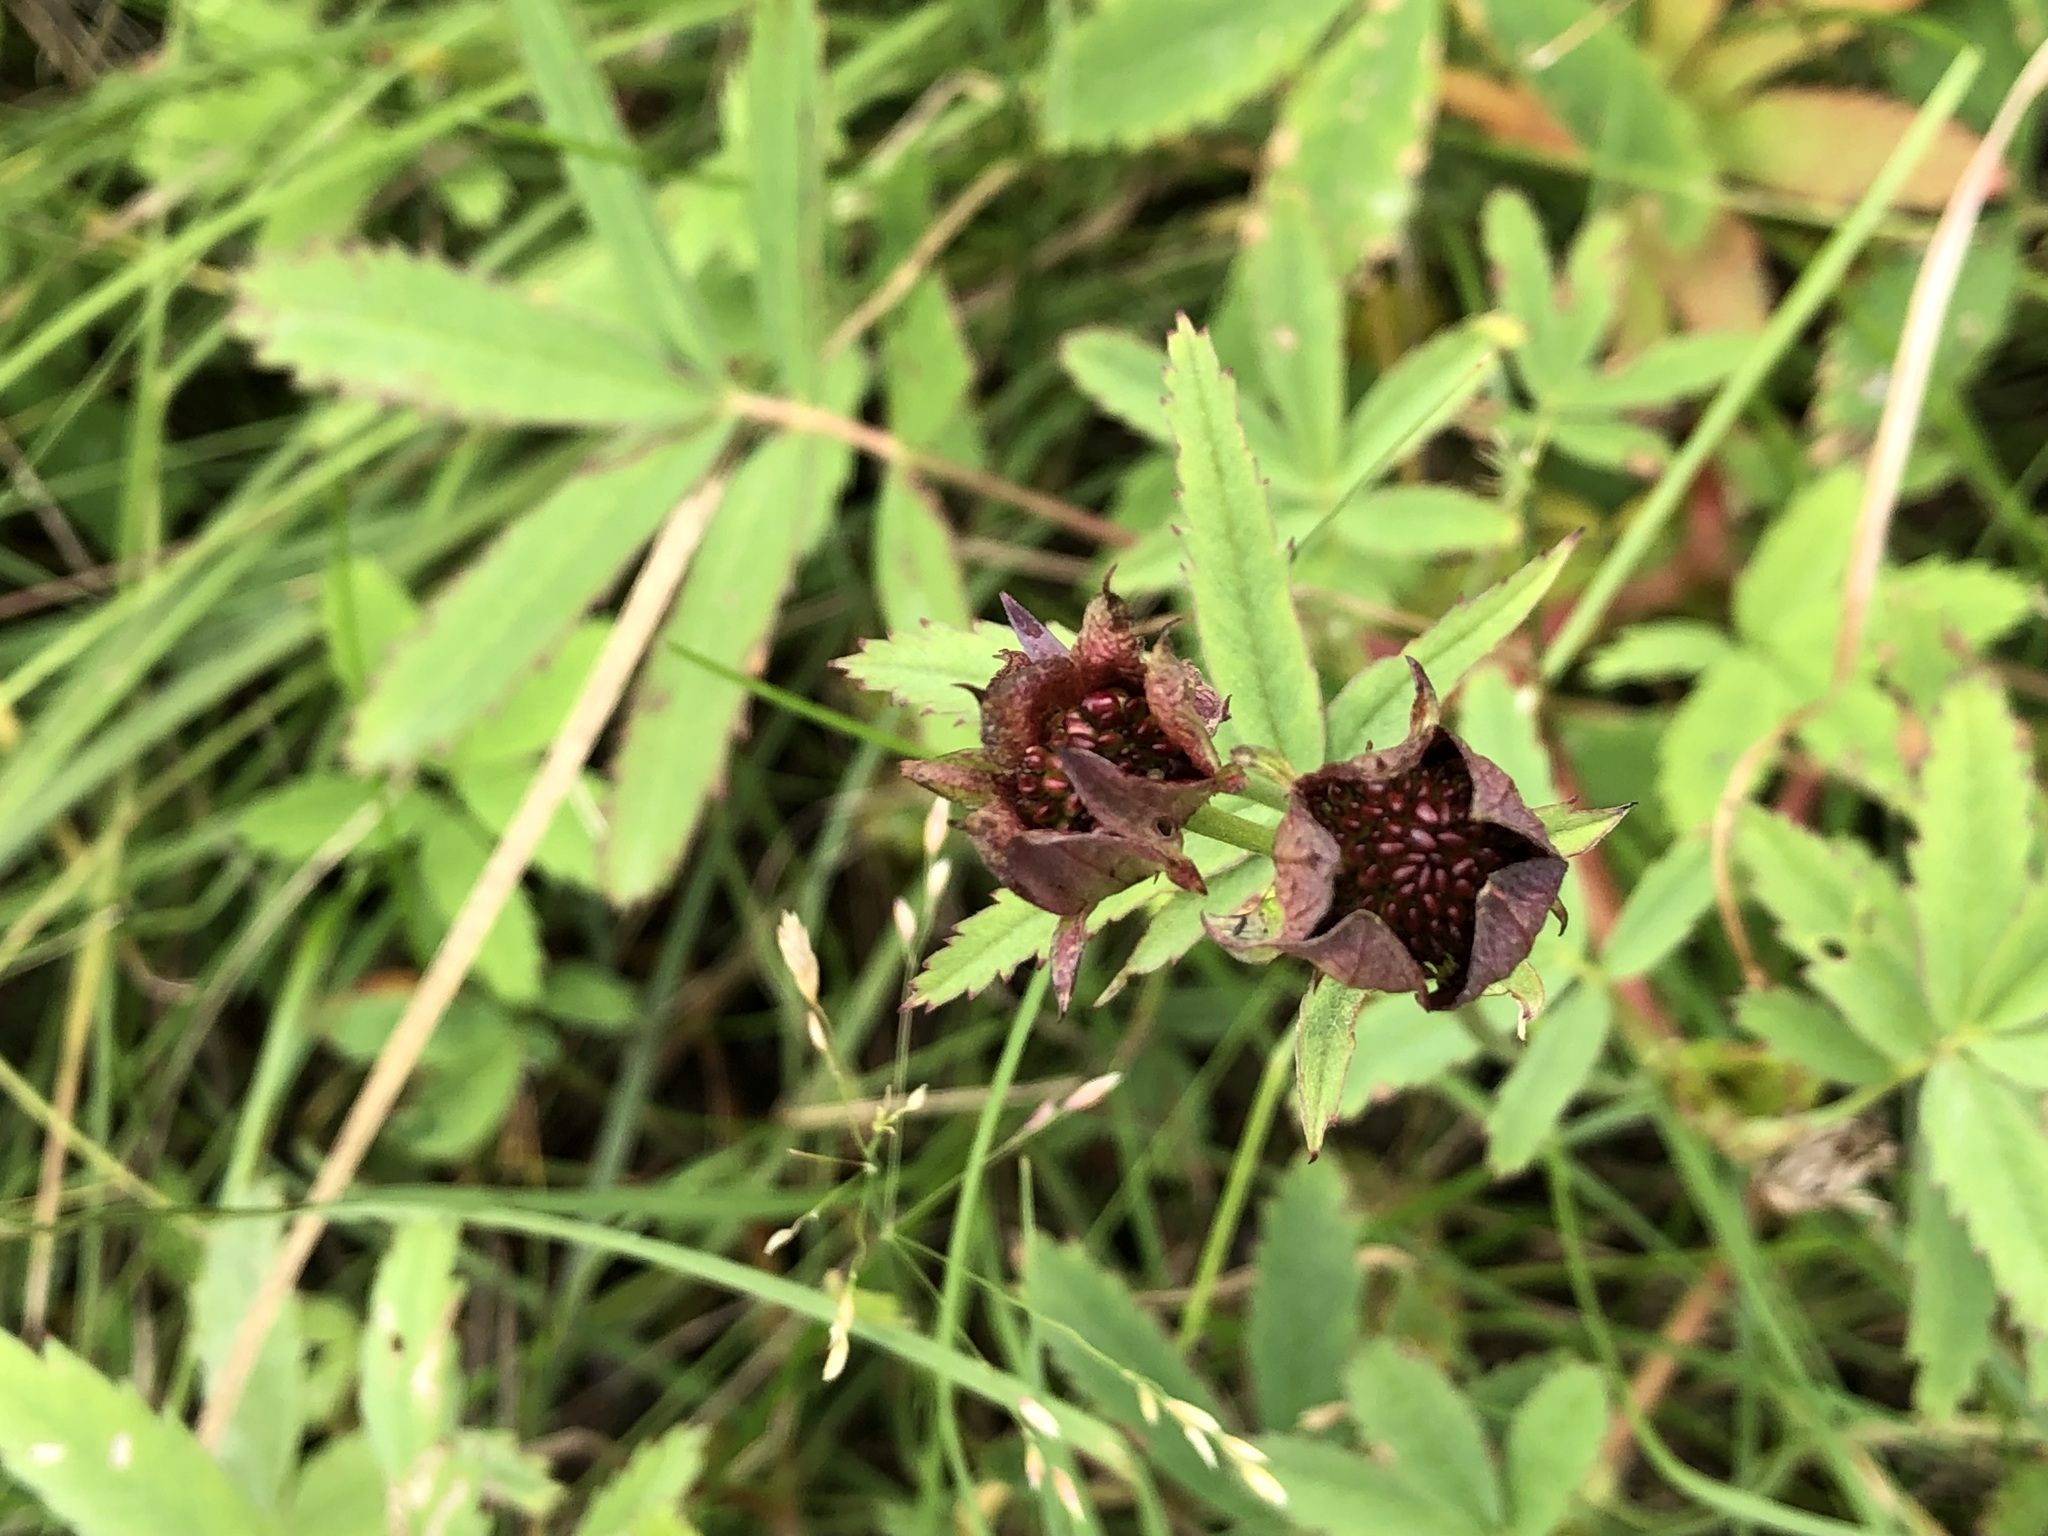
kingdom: Plantae
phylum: Tracheophyta
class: Magnoliopsida
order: Rosales
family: Rosaceae
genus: Comarum
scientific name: Comarum palustre
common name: Marsh cinquefoil
